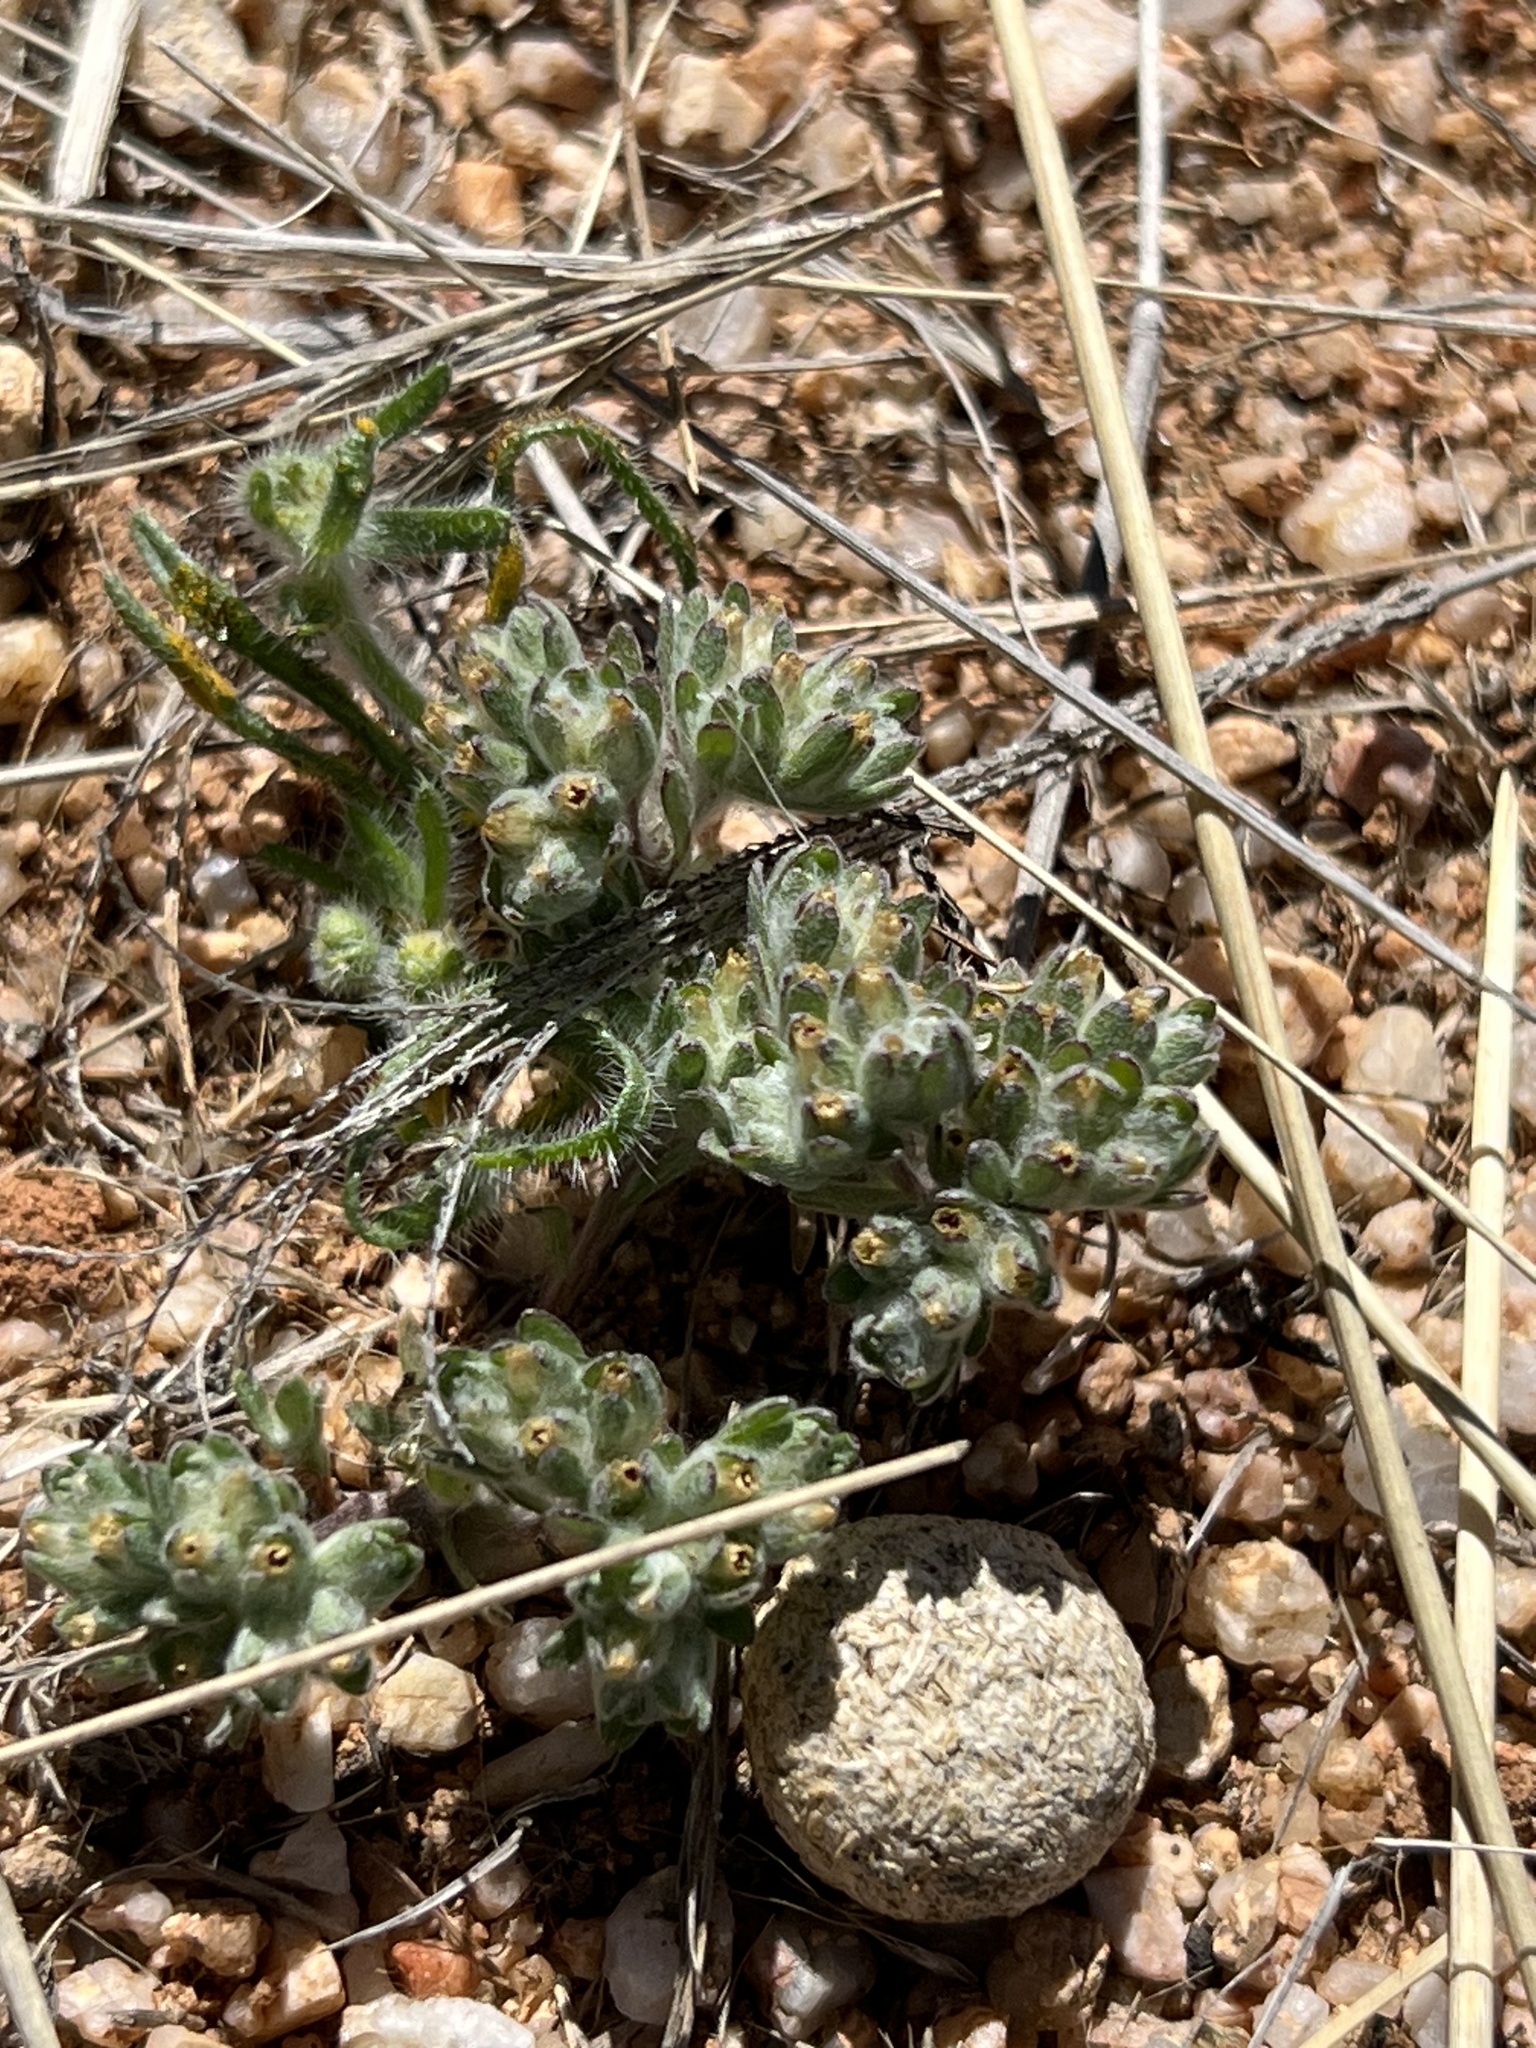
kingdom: Plantae
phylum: Tracheophyta
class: Magnoliopsida
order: Asterales
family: Asteraceae
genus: Lasiopogon
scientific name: Lasiopogon glomerulatus
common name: Green cat thorn
